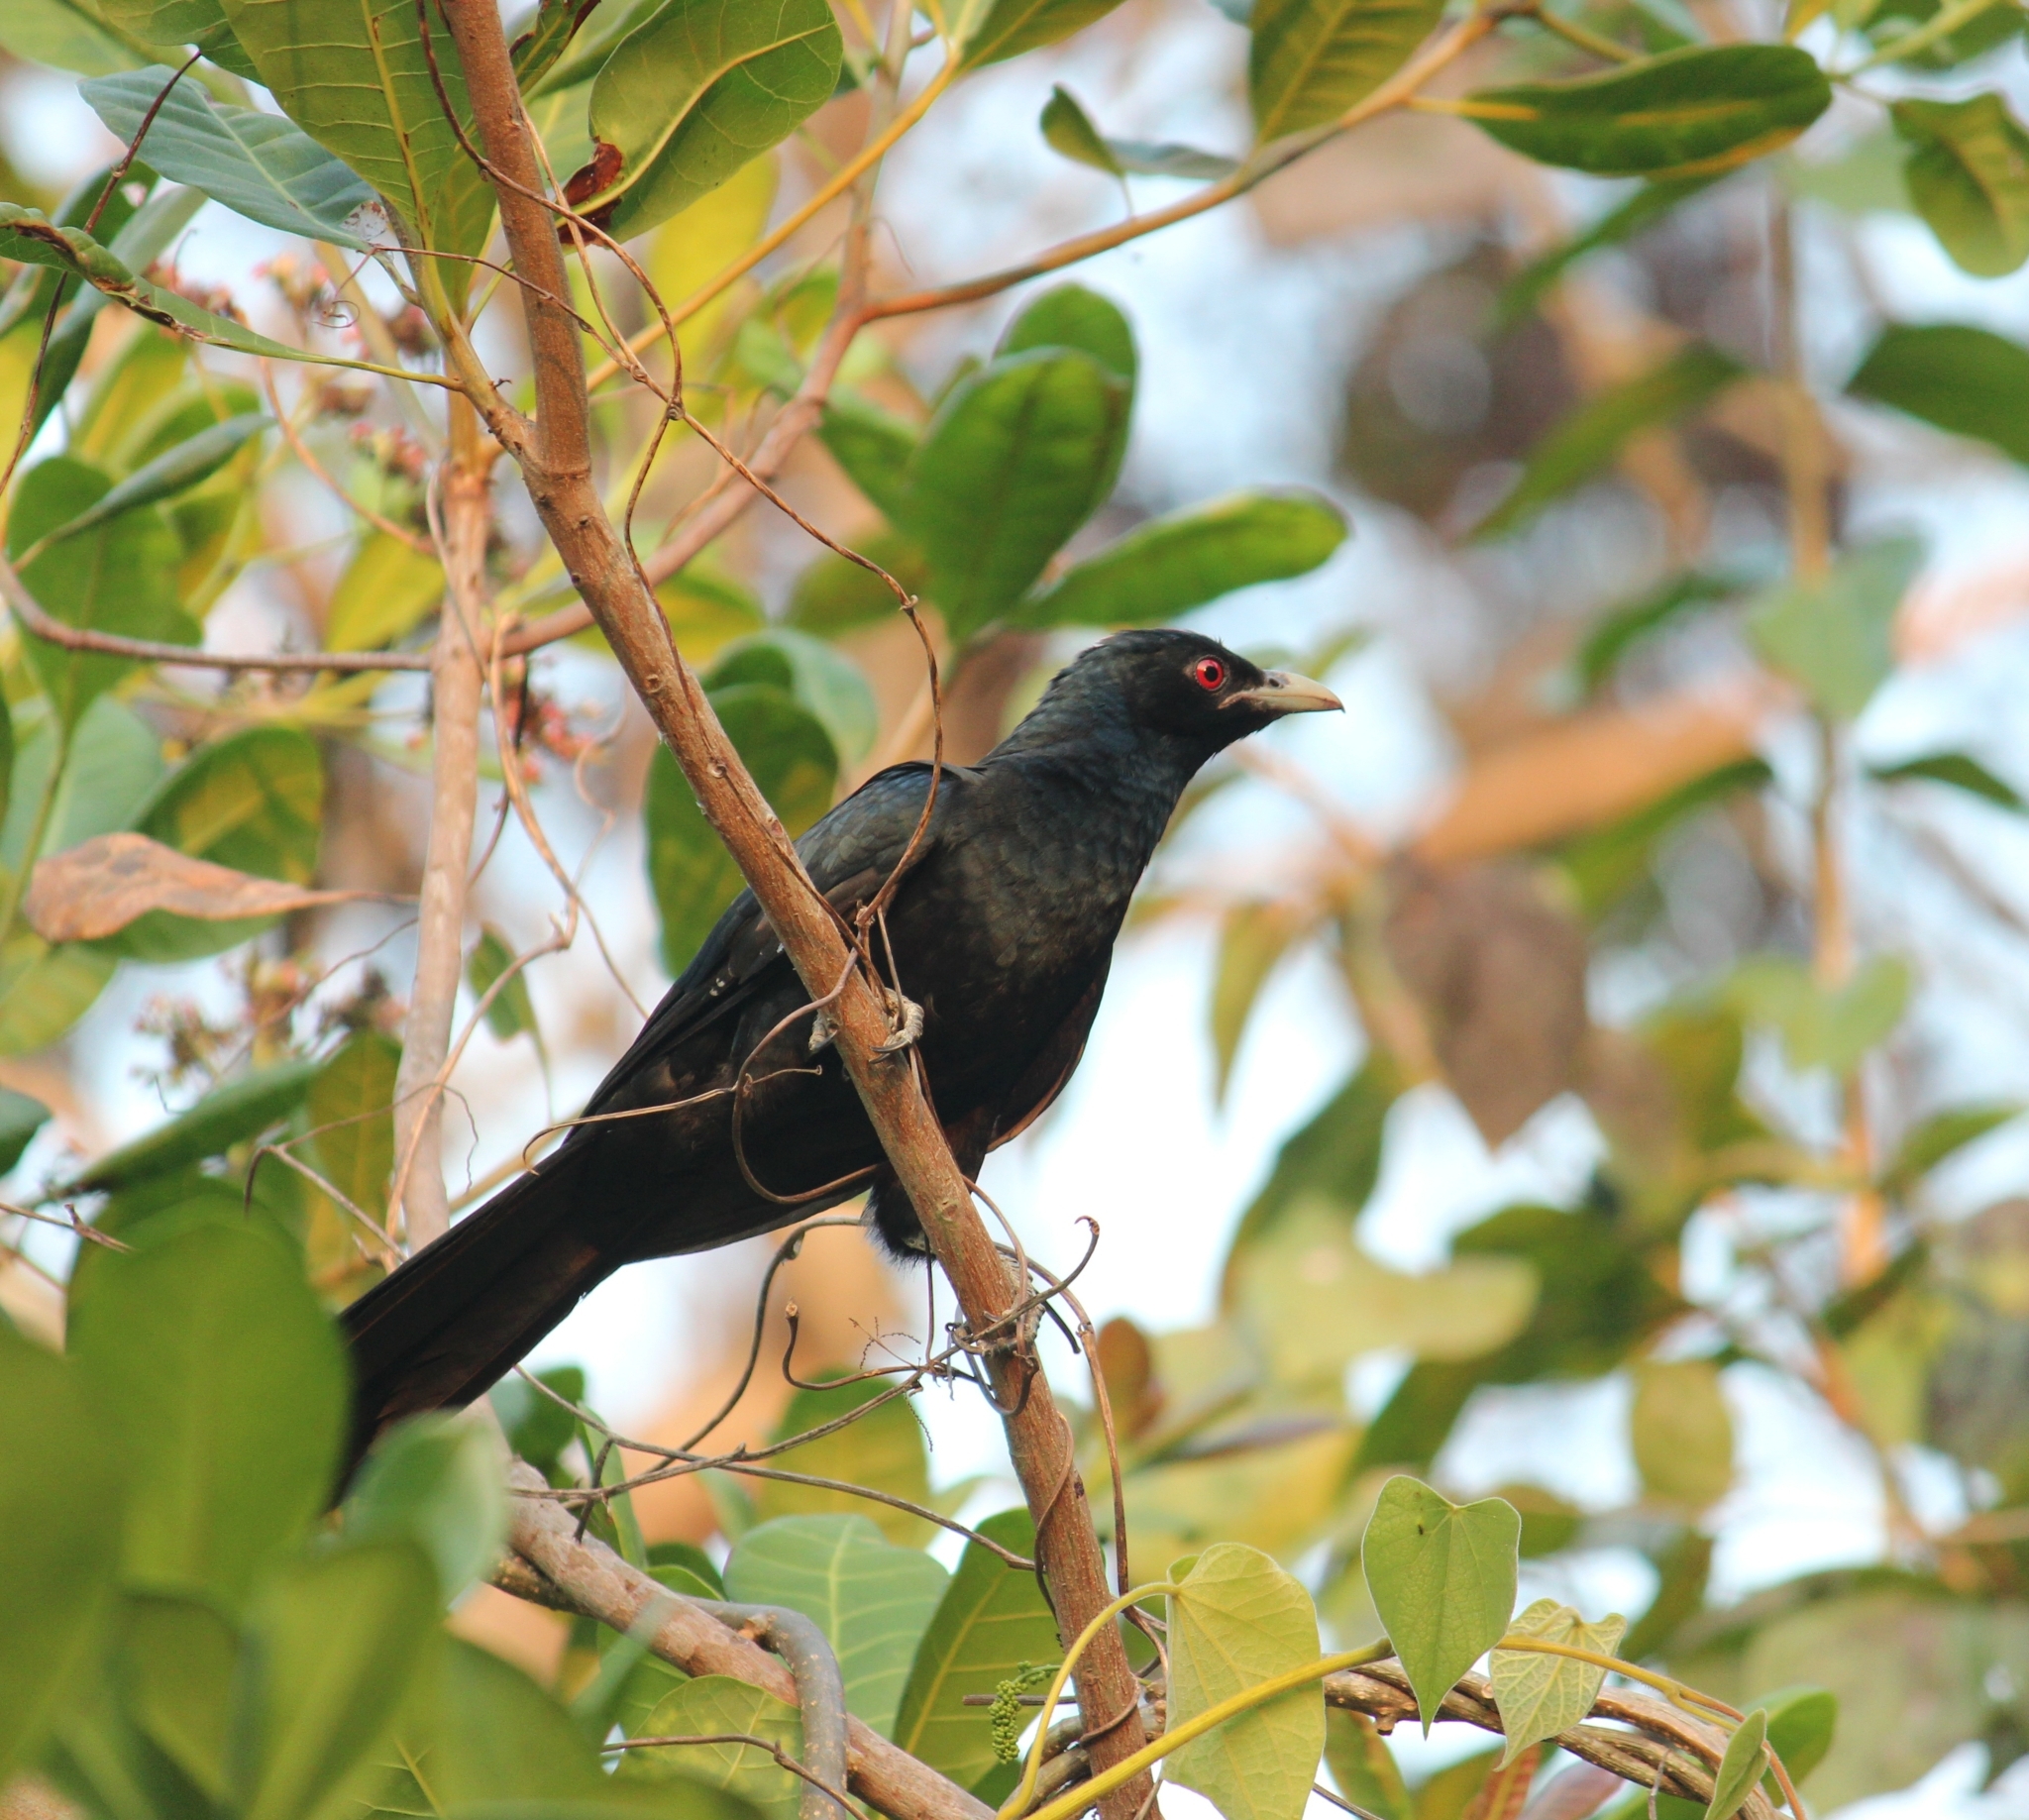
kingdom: Animalia
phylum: Chordata
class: Aves
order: Cuculiformes
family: Cuculidae
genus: Eudynamys
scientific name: Eudynamys scolopaceus
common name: Asian koel
